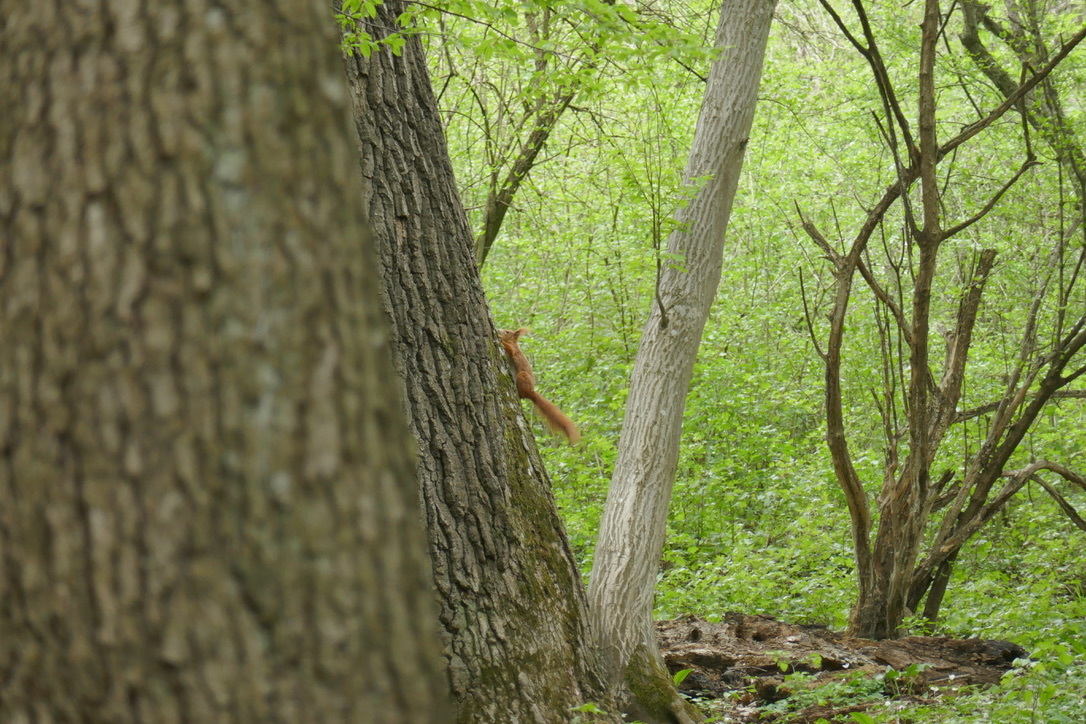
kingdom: Animalia
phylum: Chordata
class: Mammalia
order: Rodentia
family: Sciuridae
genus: Sciurus
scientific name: Sciurus vulgaris
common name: Eurasian red squirrel
